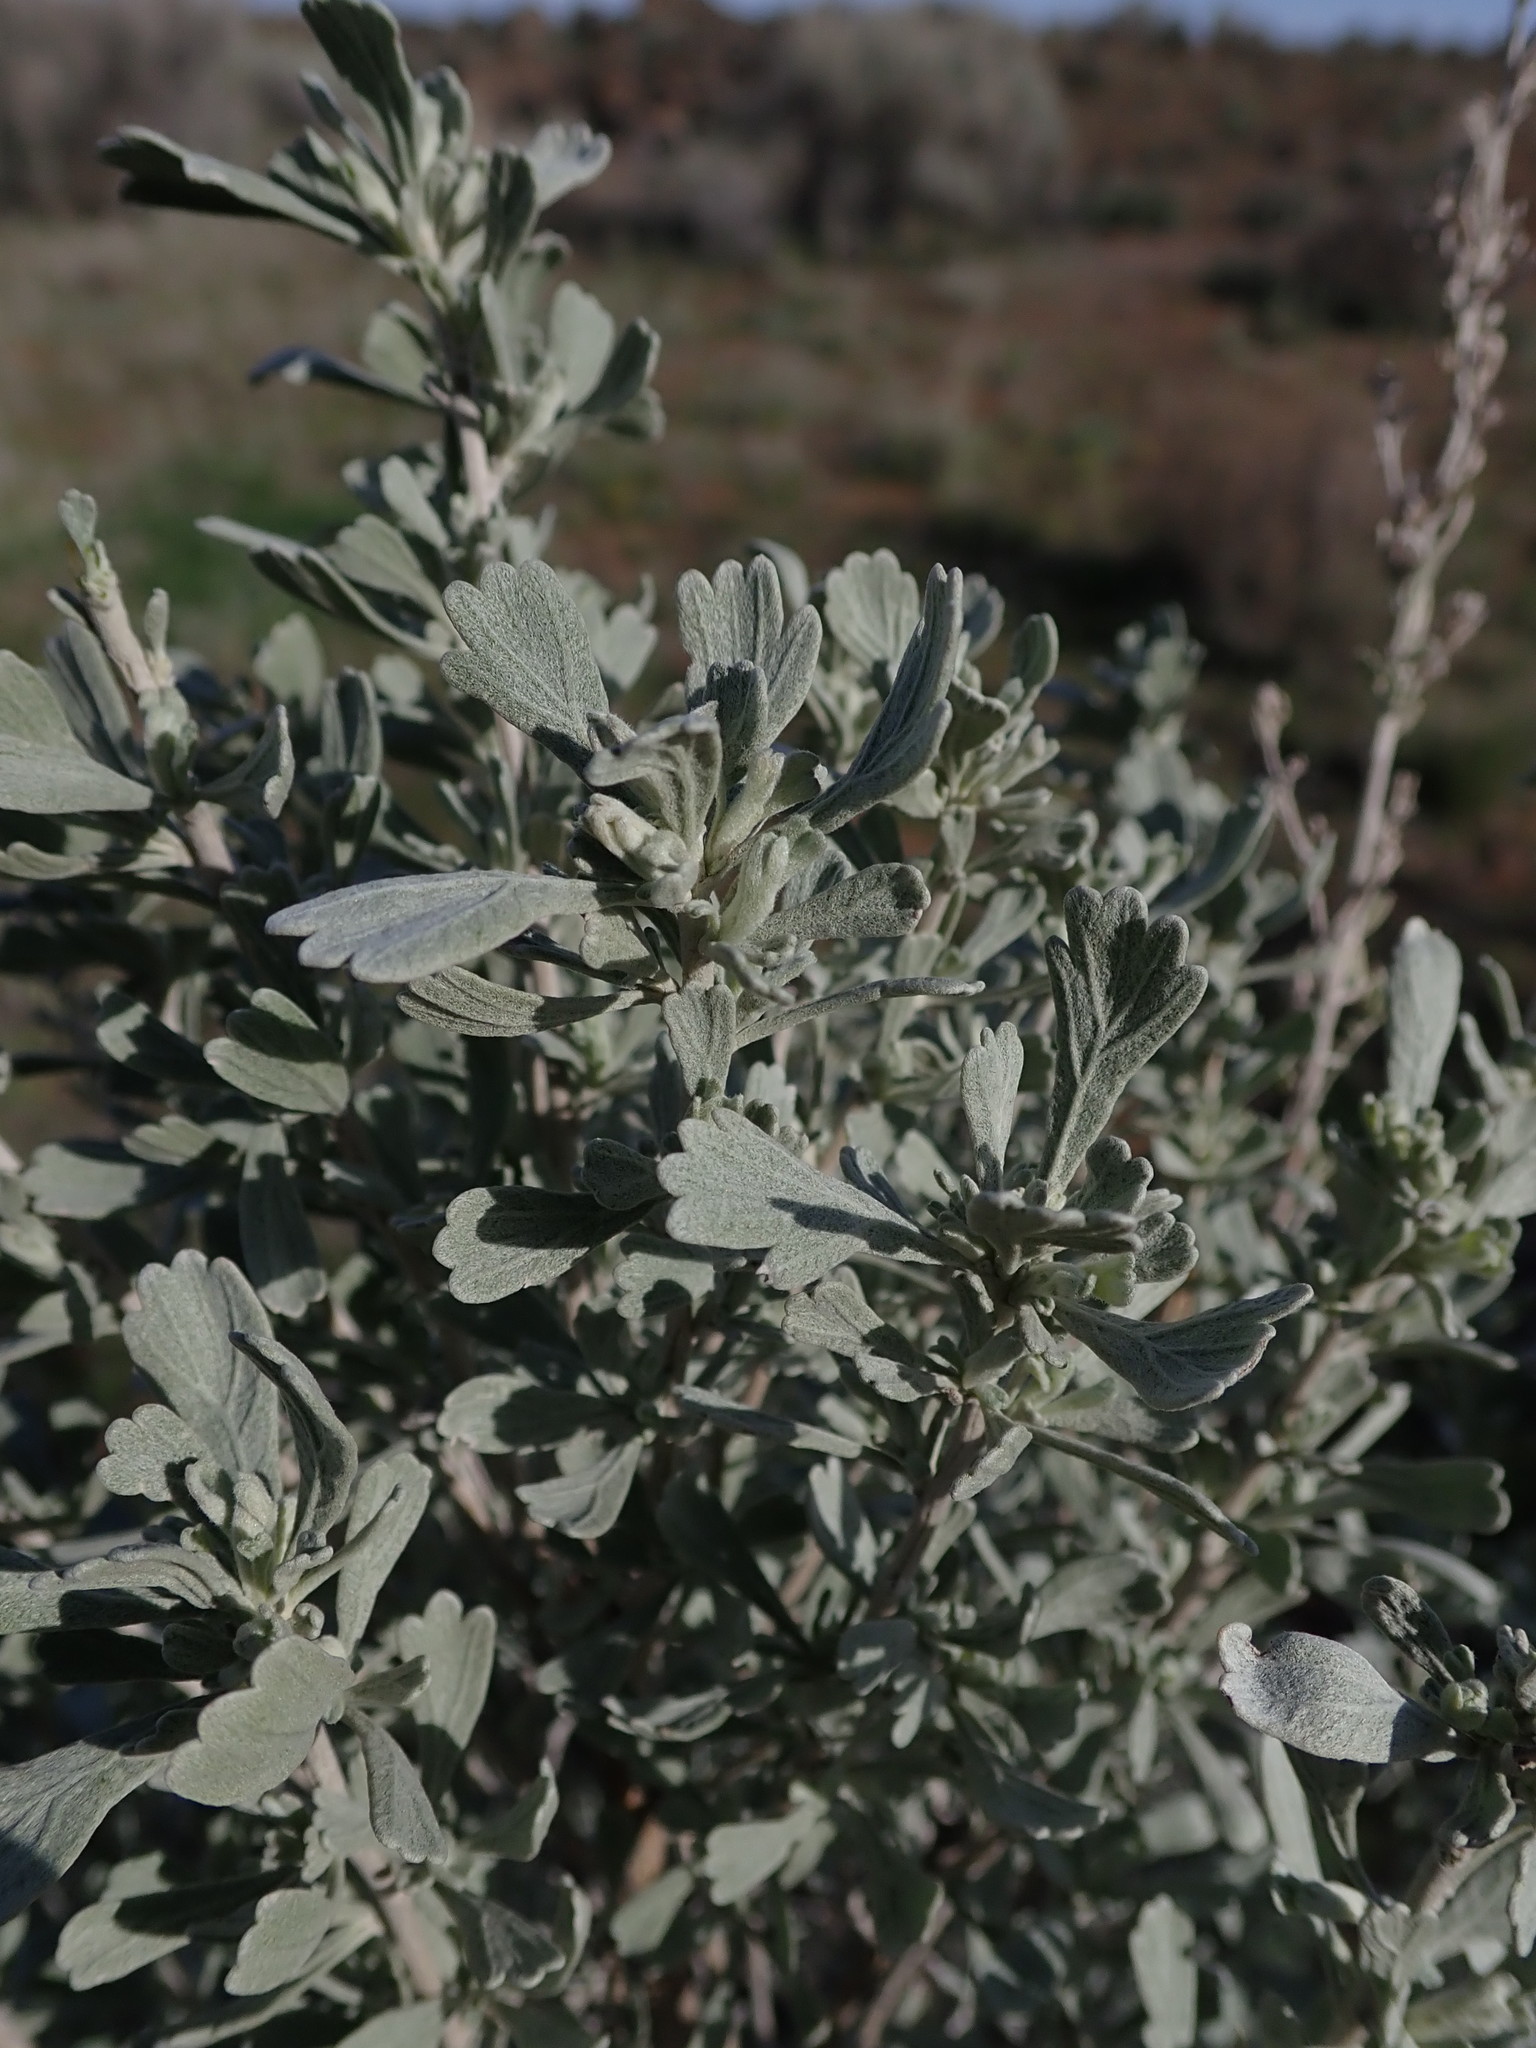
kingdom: Plantae
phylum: Tracheophyta
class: Magnoliopsida
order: Asterales
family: Asteraceae
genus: Artemisia
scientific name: Artemisia tridentata
